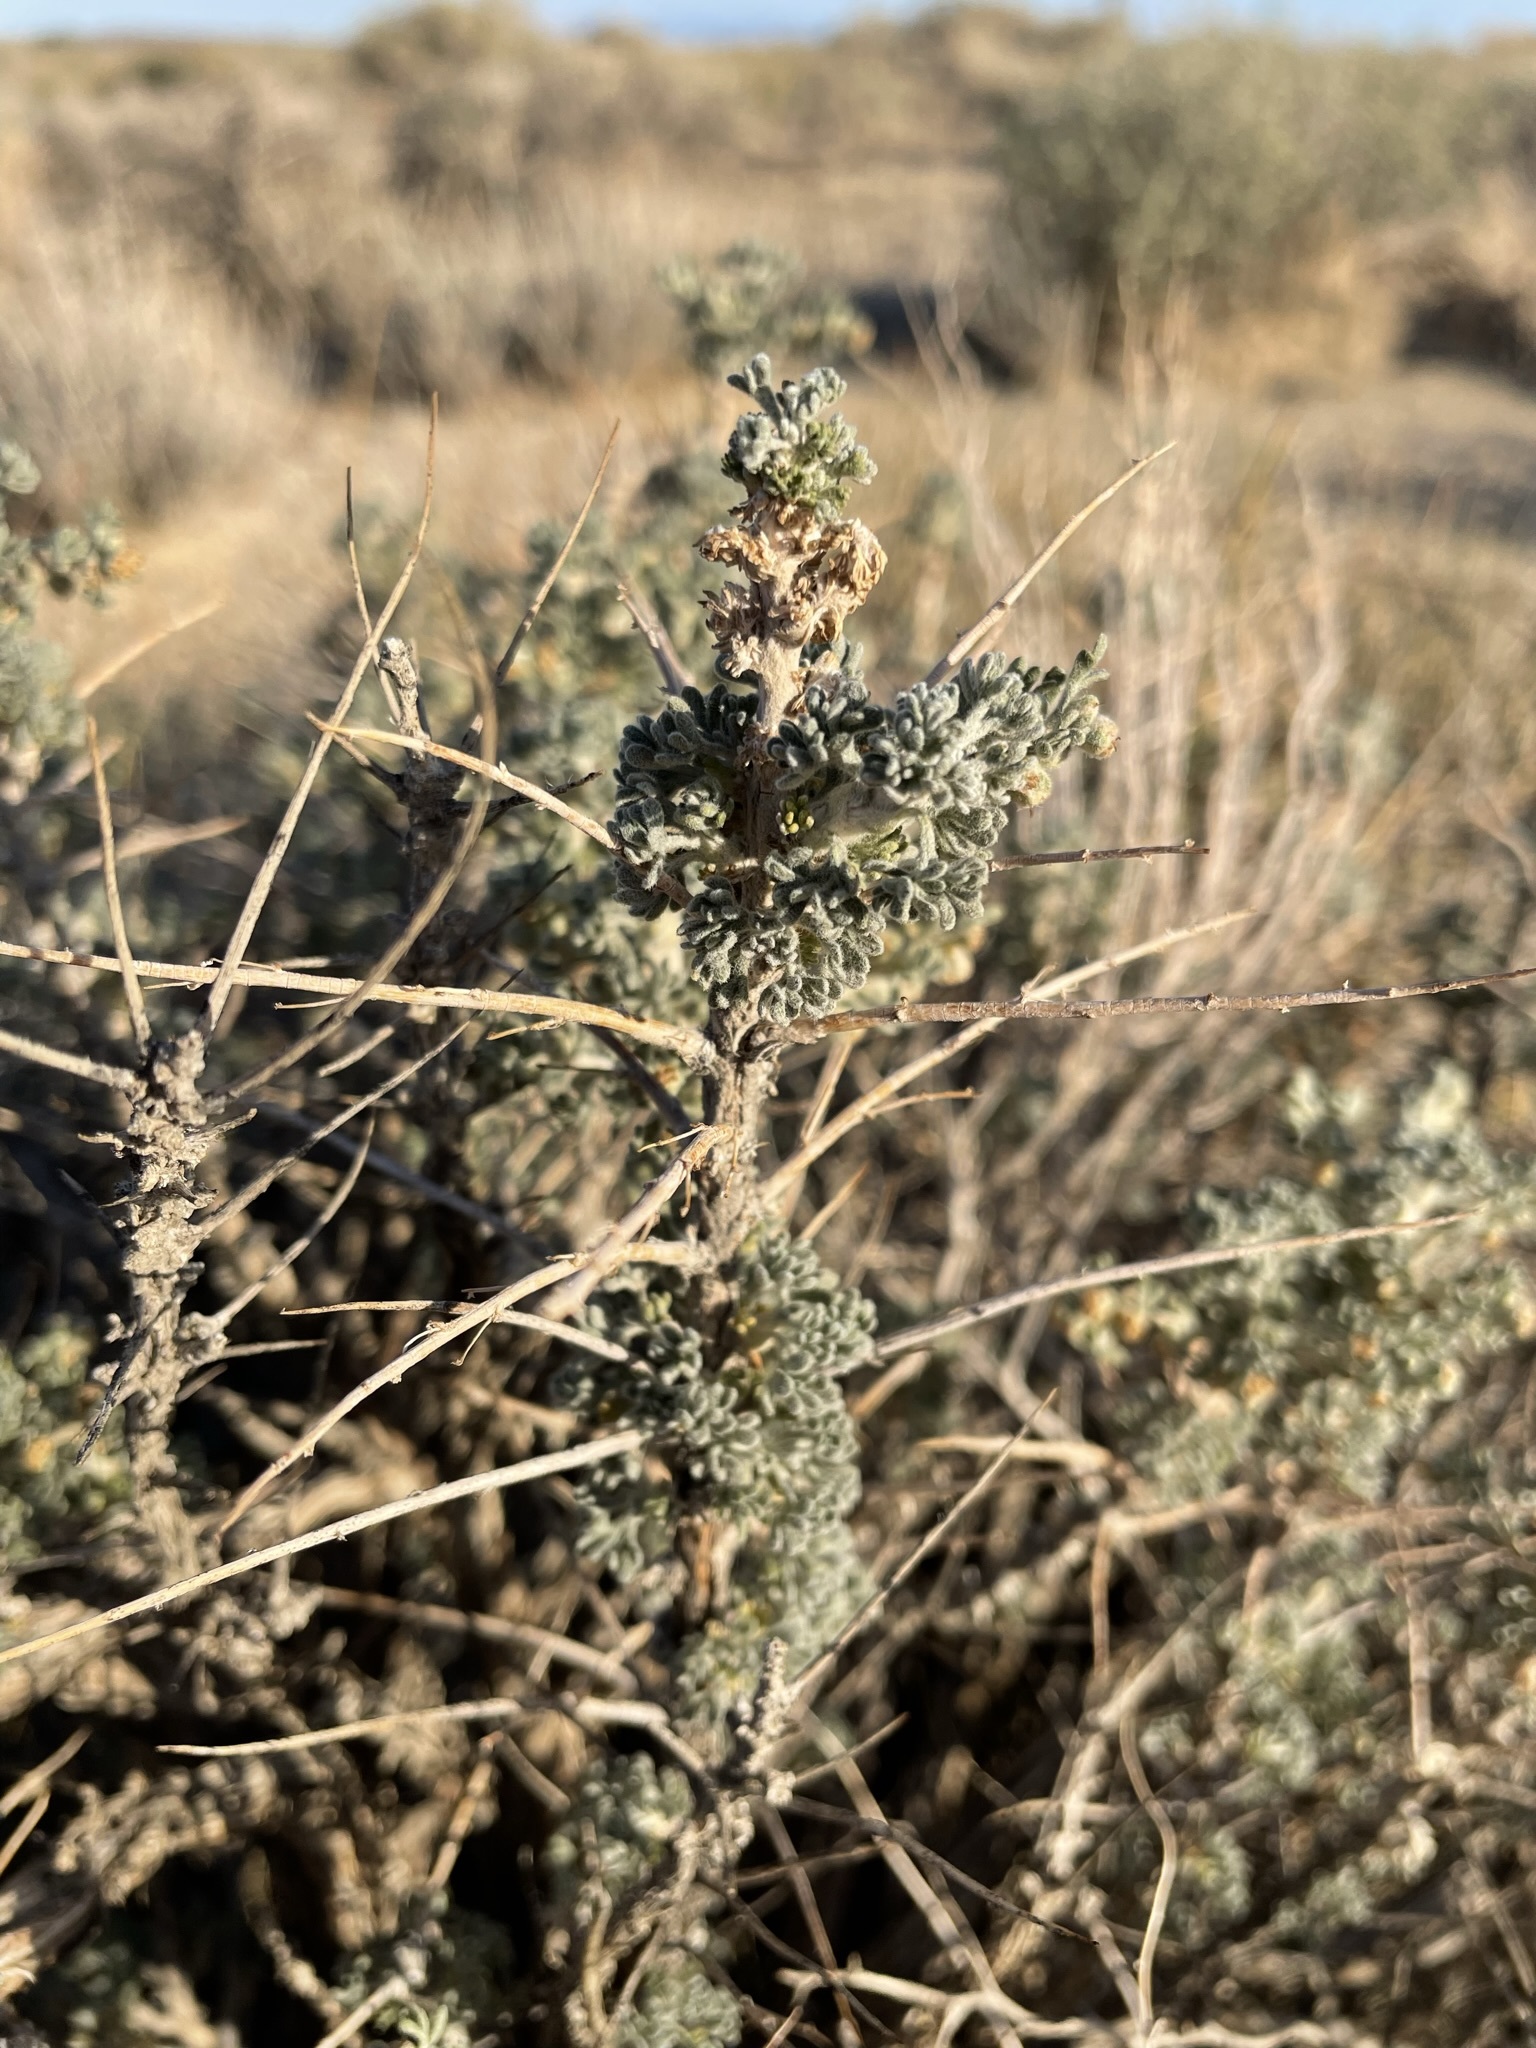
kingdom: Plantae
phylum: Tracheophyta
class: Magnoliopsida
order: Asterales
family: Asteraceae
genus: Artemisia
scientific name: Artemisia spinescens
